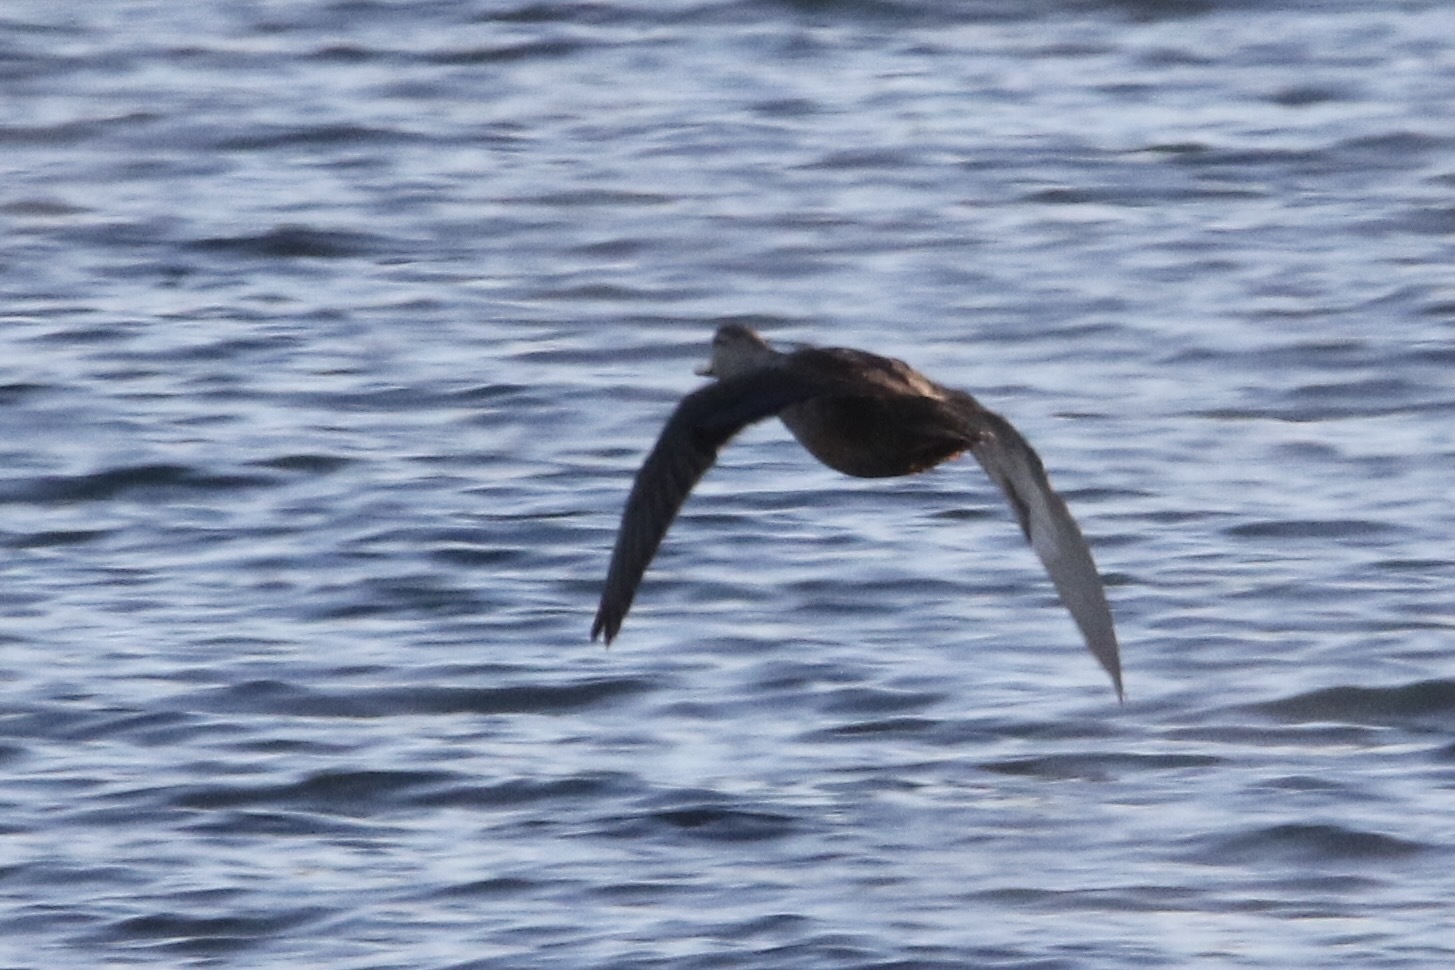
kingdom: Animalia
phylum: Chordata
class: Aves
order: Anseriformes
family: Anatidae
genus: Anas
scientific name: Anas rubripes
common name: American black duck
